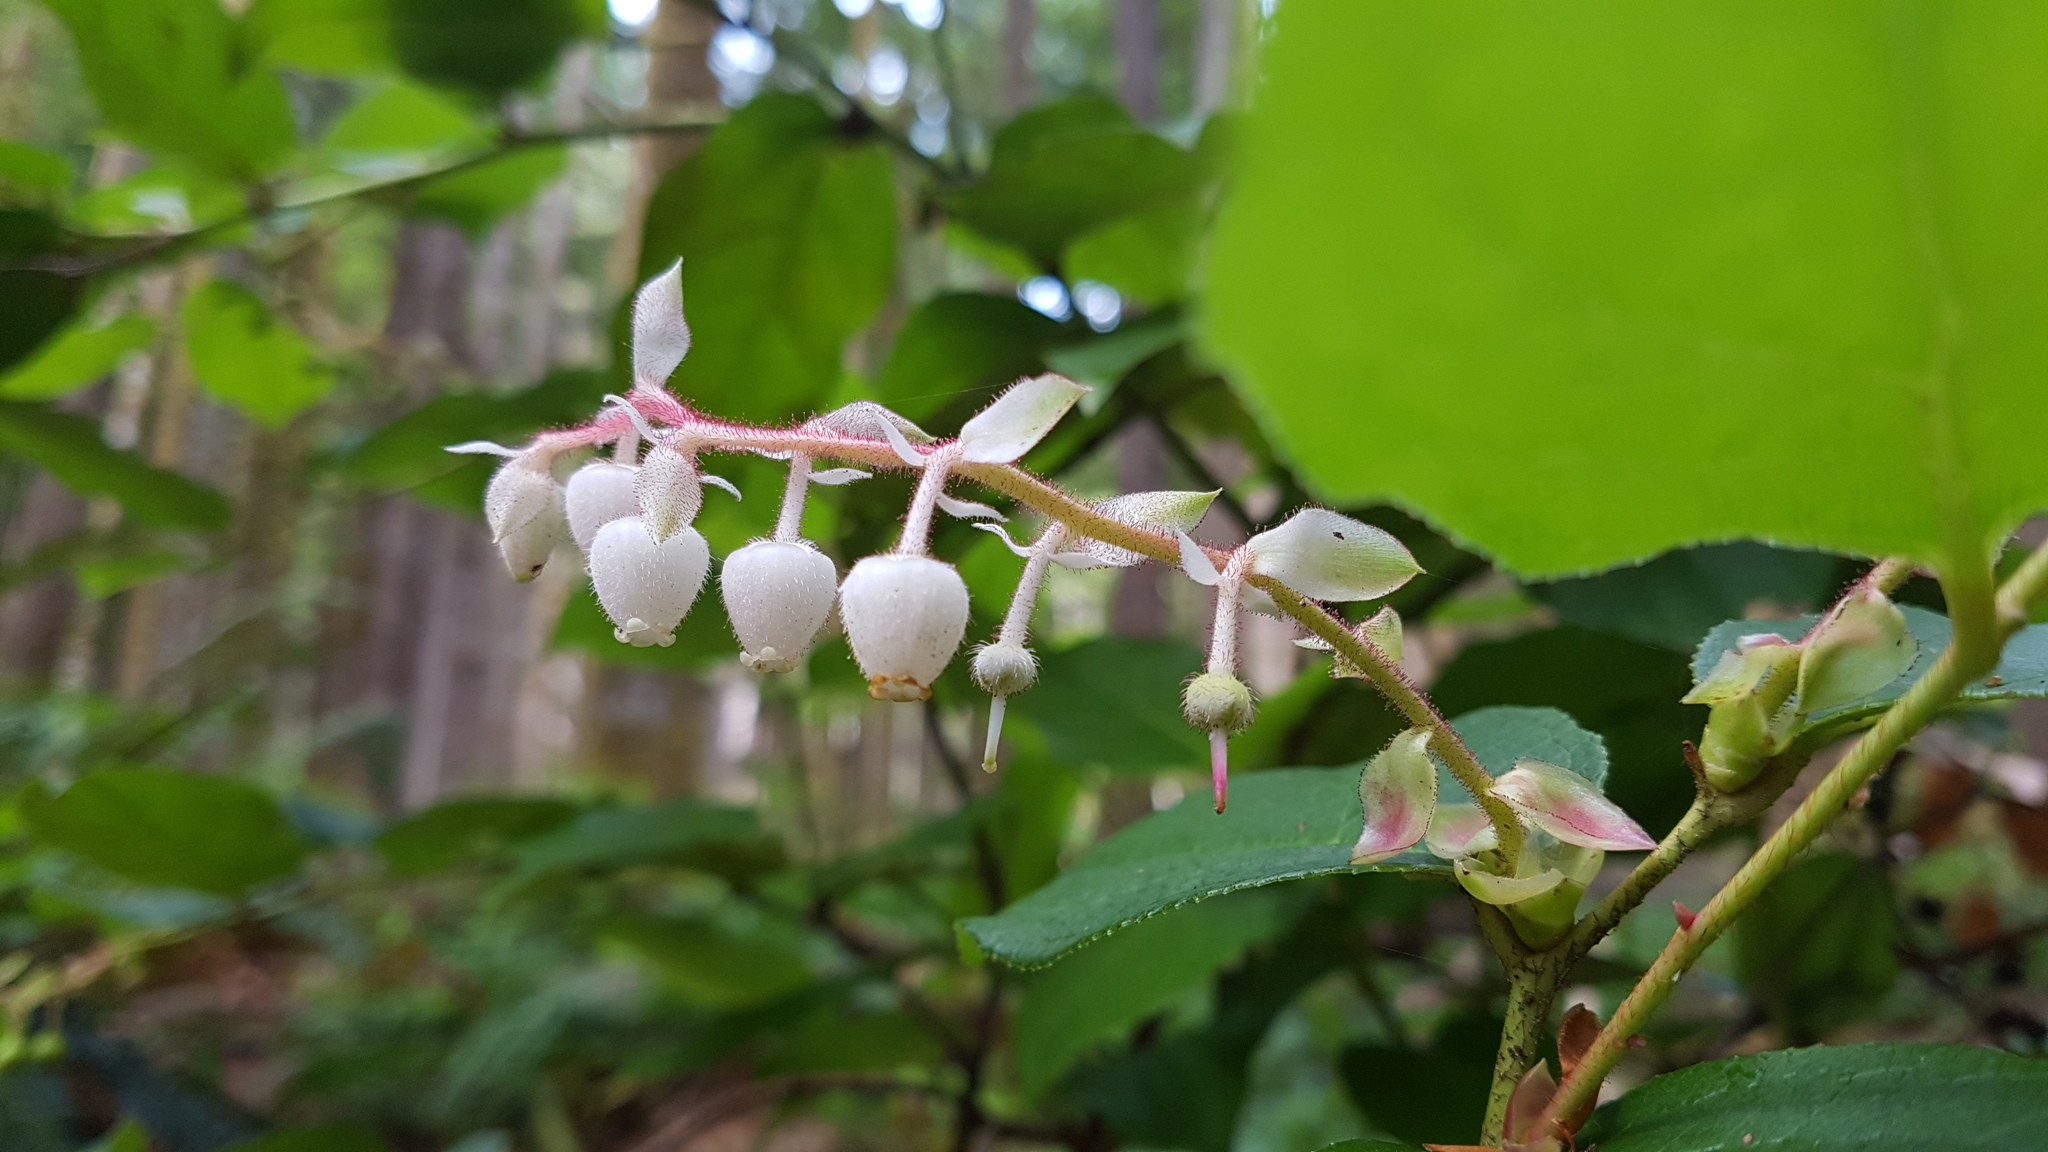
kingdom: Plantae
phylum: Tracheophyta
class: Magnoliopsida
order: Ericales
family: Ericaceae
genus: Gaultheria
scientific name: Gaultheria shallon
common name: Shallon
